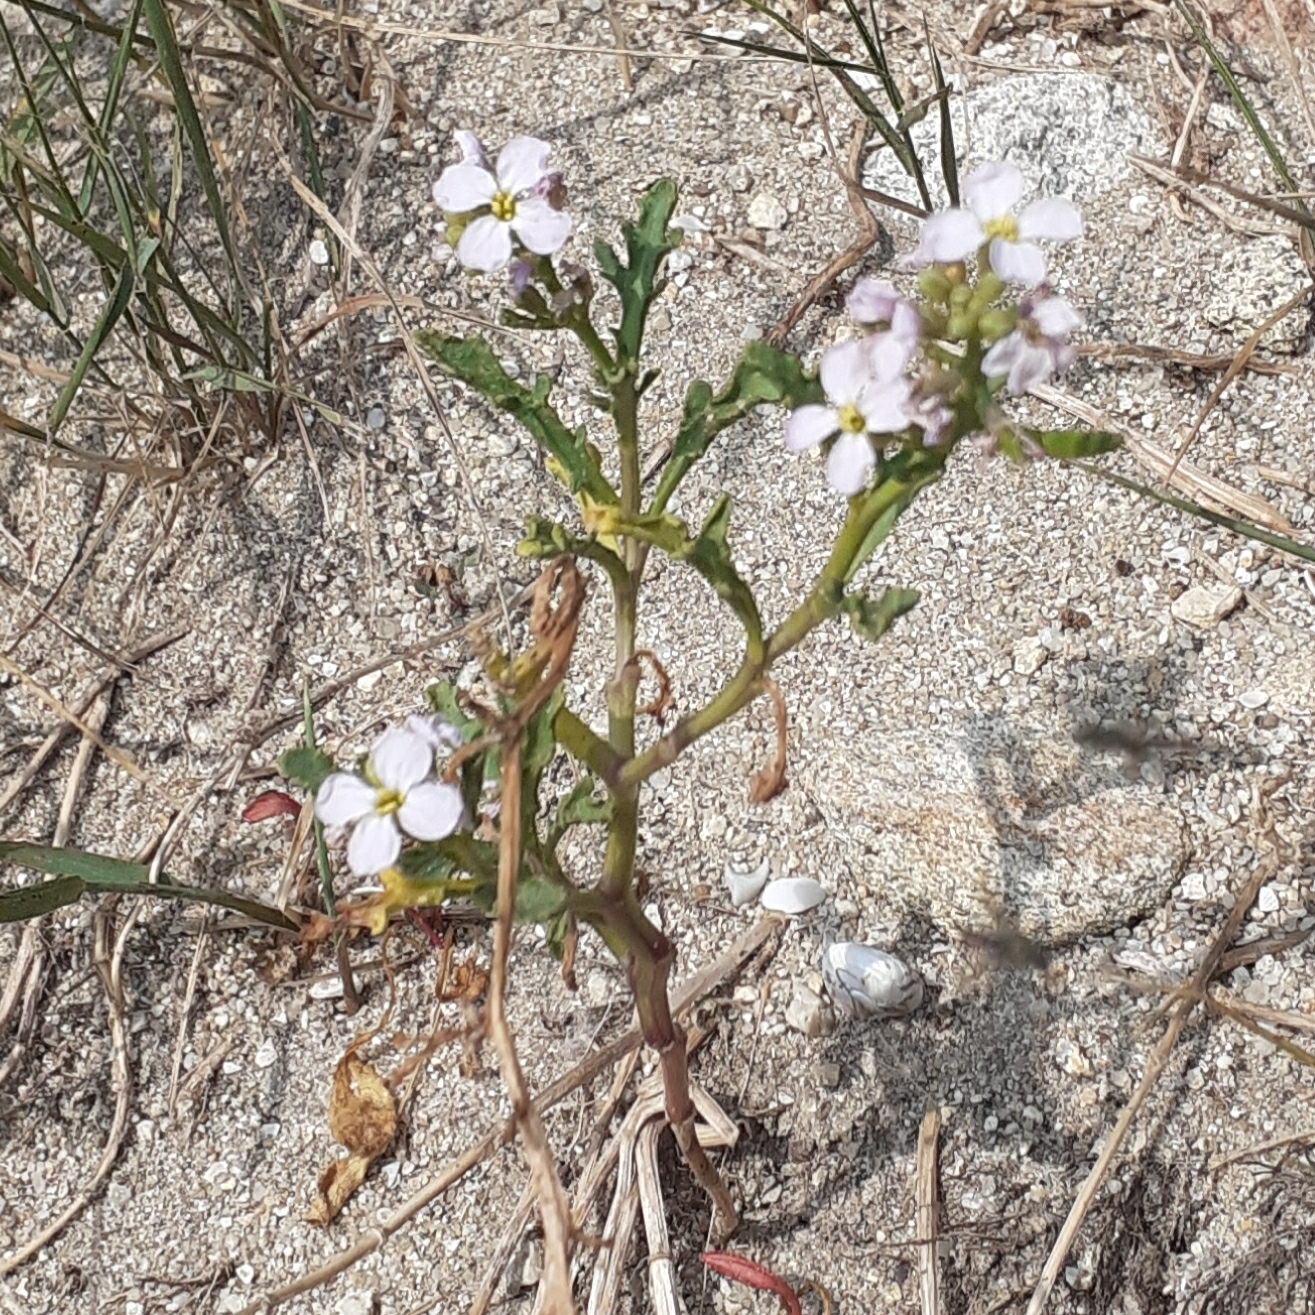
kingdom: Plantae
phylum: Tracheophyta
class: Magnoliopsida
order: Brassicales
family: Brassicaceae
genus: Cakile
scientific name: Cakile maritima
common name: Sea rocket
